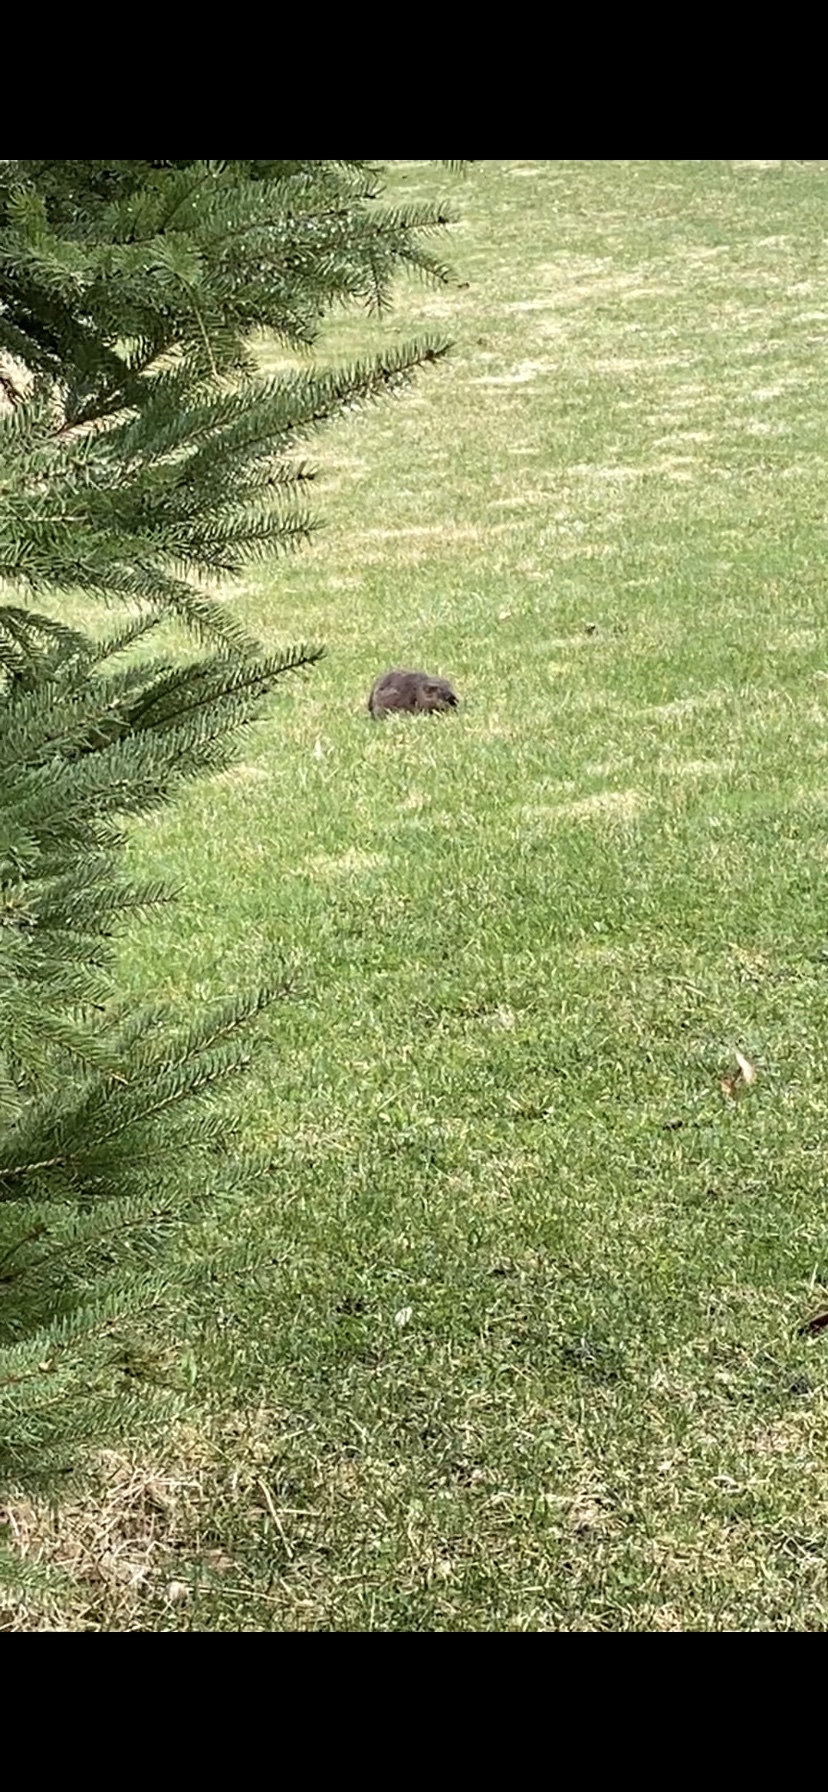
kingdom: Animalia
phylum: Chordata
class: Mammalia
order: Rodentia
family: Cricetidae
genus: Ondatra
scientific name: Ondatra zibethicus
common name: Muskrat
